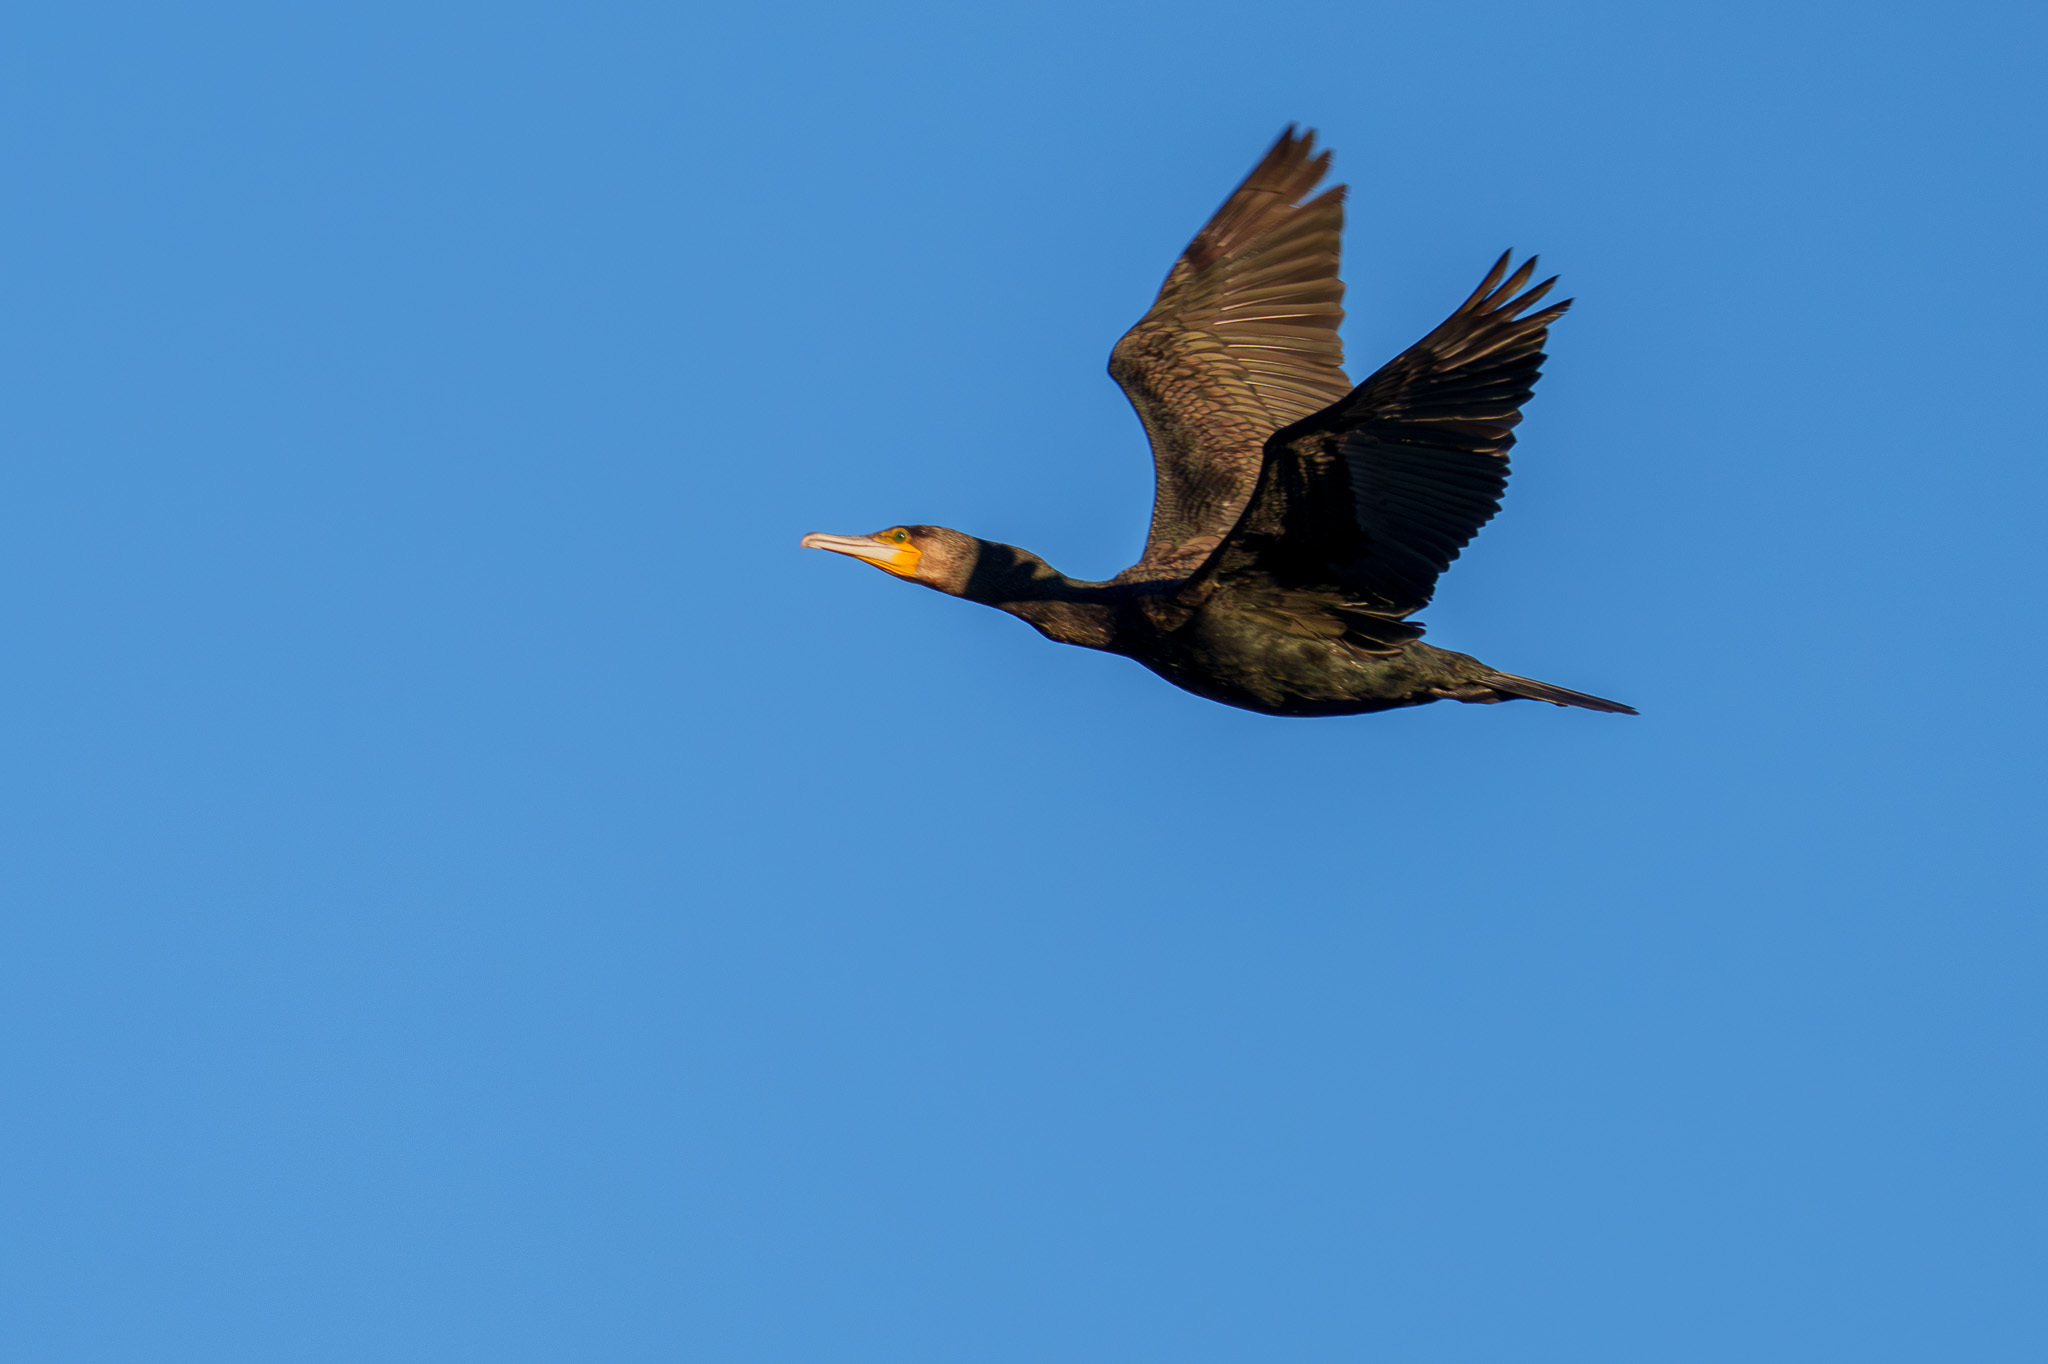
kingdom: Animalia
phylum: Chordata
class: Aves
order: Suliformes
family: Phalacrocoracidae
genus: Phalacrocorax
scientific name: Phalacrocorax carbo
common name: Great cormorant
